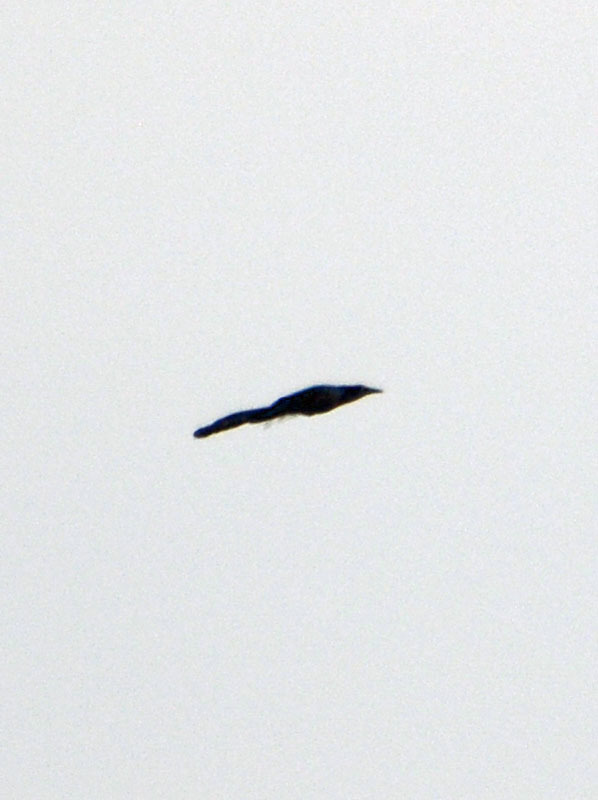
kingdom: Animalia
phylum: Chordata
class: Aves
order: Passeriformes
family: Icteridae
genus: Quiscalus
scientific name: Quiscalus mexicanus
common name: Great-tailed grackle
